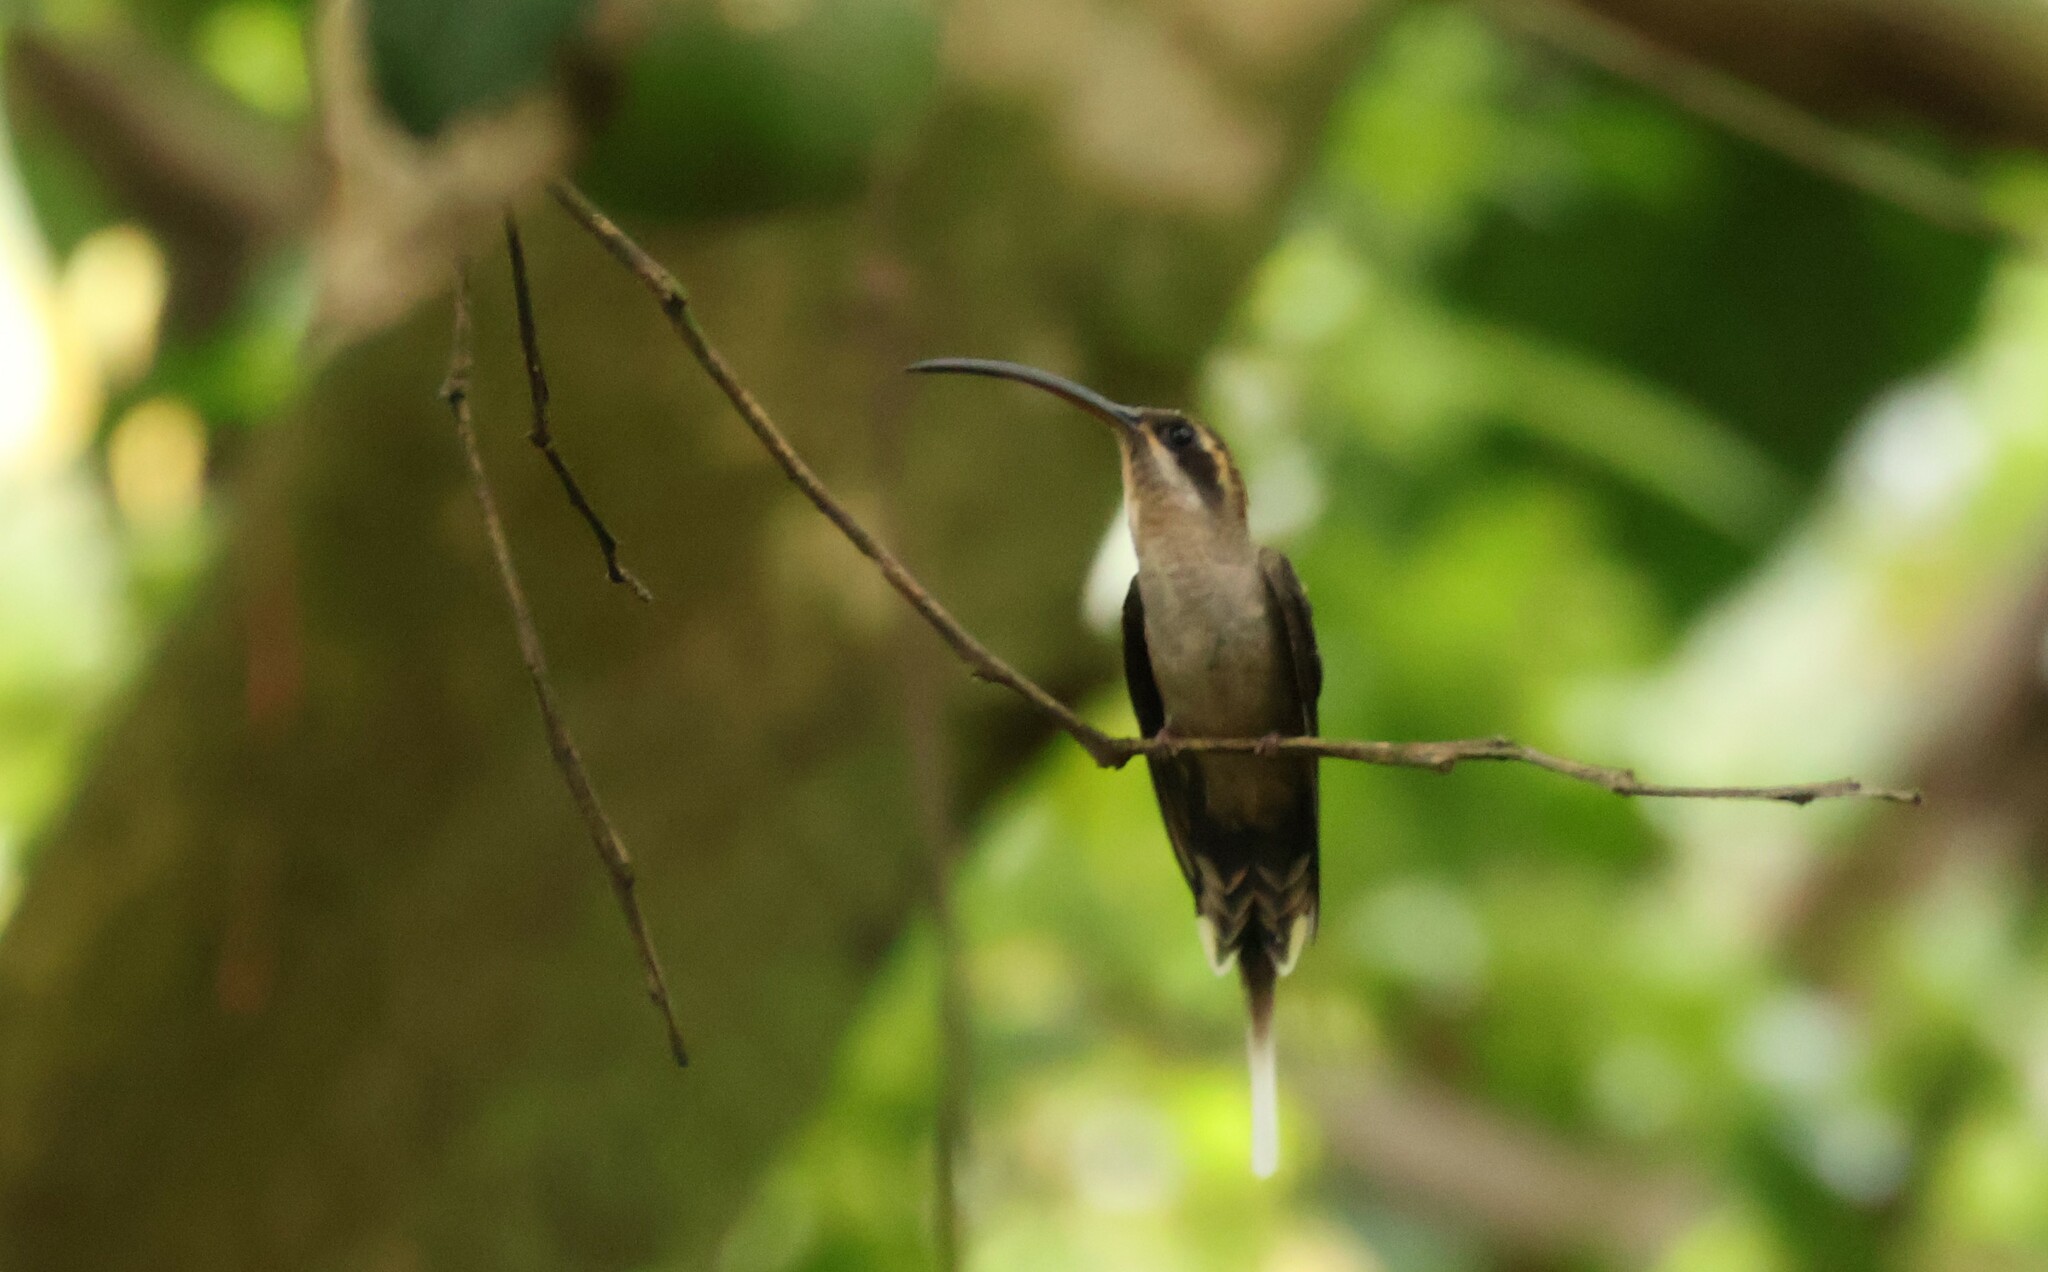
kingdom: Animalia
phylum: Chordata
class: Aves
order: Apodiformes
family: Trochilidae
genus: Phaethornis
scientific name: Phaethornis longirostris
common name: Long-billed hermit
